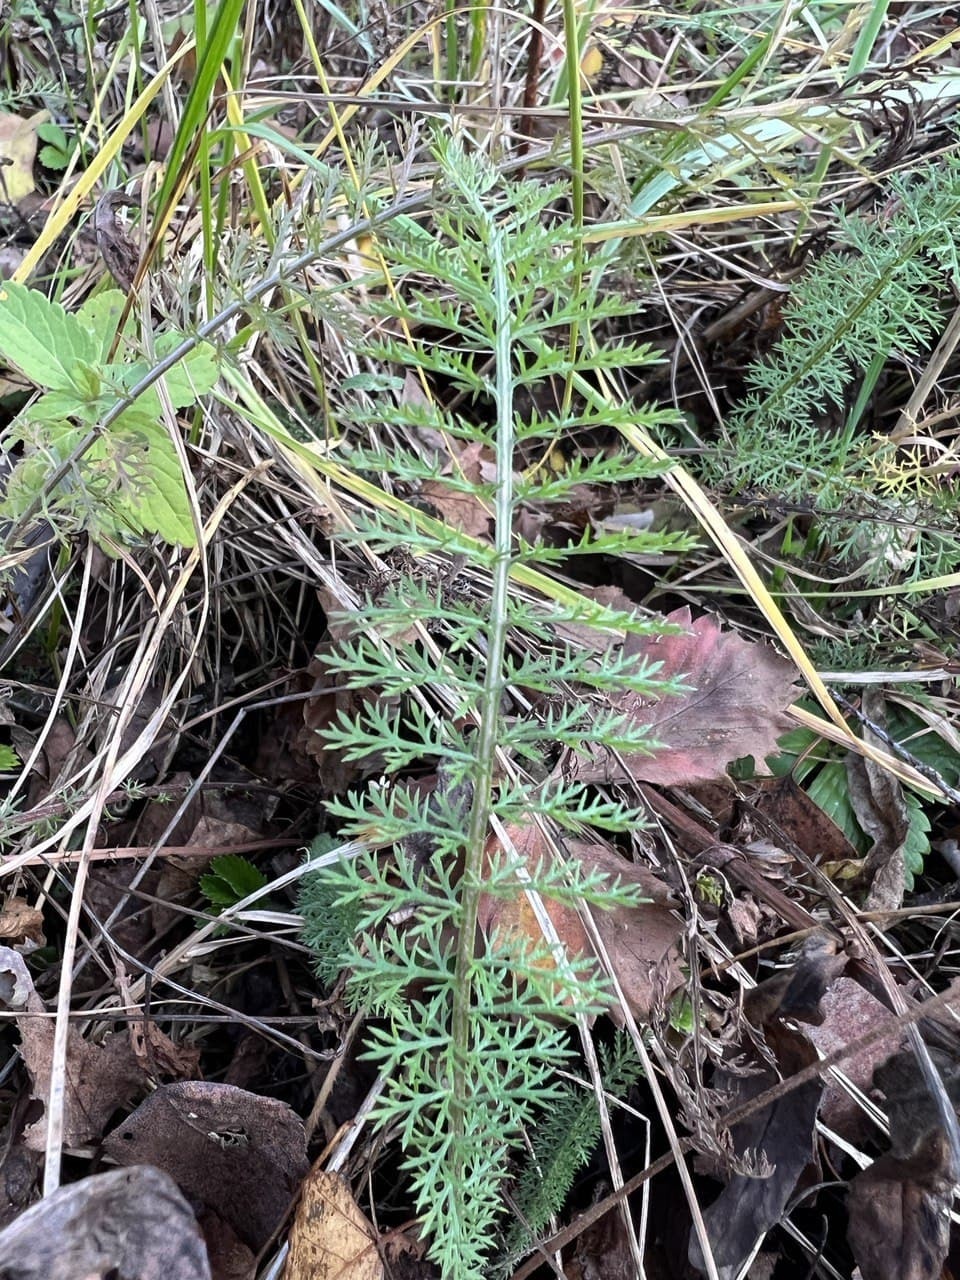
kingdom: Plantae
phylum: Tracheophyta
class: Magnoliopsida
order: Asterales
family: Asteraceae
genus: Achillea
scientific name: Achillea millefolium
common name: Yarrow
